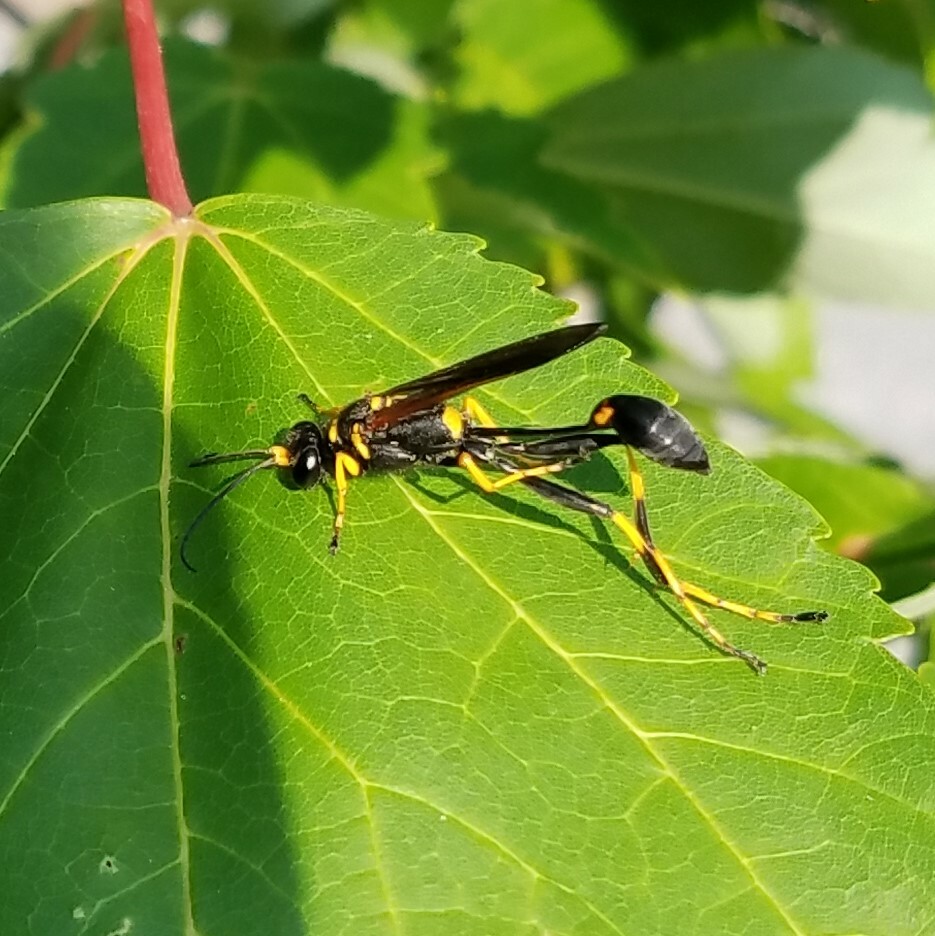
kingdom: Animalia
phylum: Arthropoda
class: Insecta
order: Hymenoptera
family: Sphecidae
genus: Sceliphron
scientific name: Sceliphron caementarium
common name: Mud dauber
